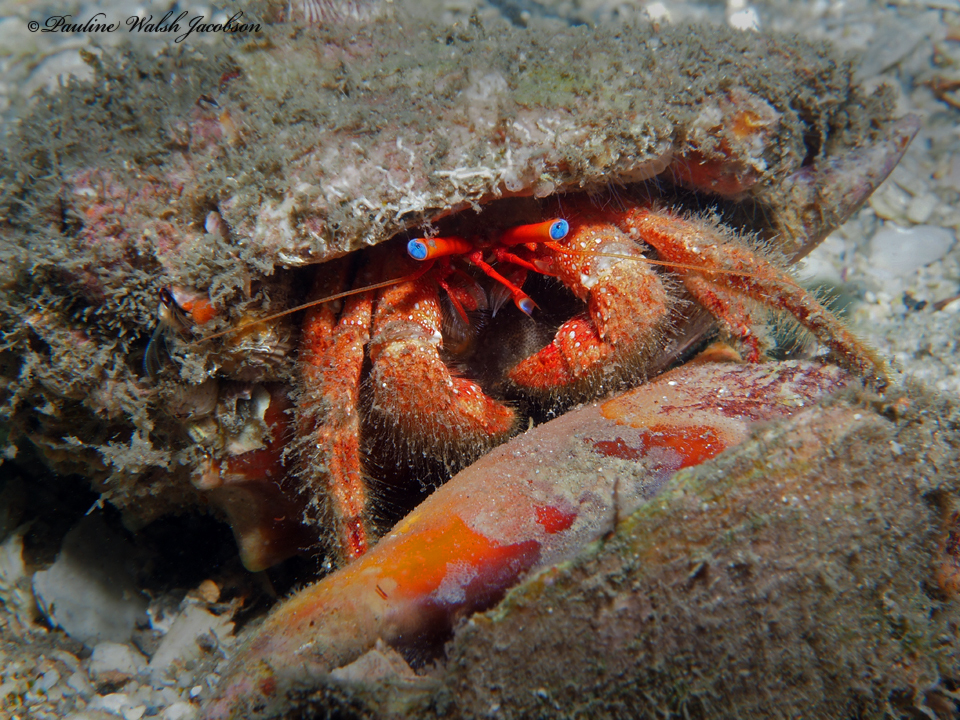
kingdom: Animalia
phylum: Arthropoda
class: Malacostraca
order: Decapoda
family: Diogenidae
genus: Paguristes
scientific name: Paguristes sericeus
